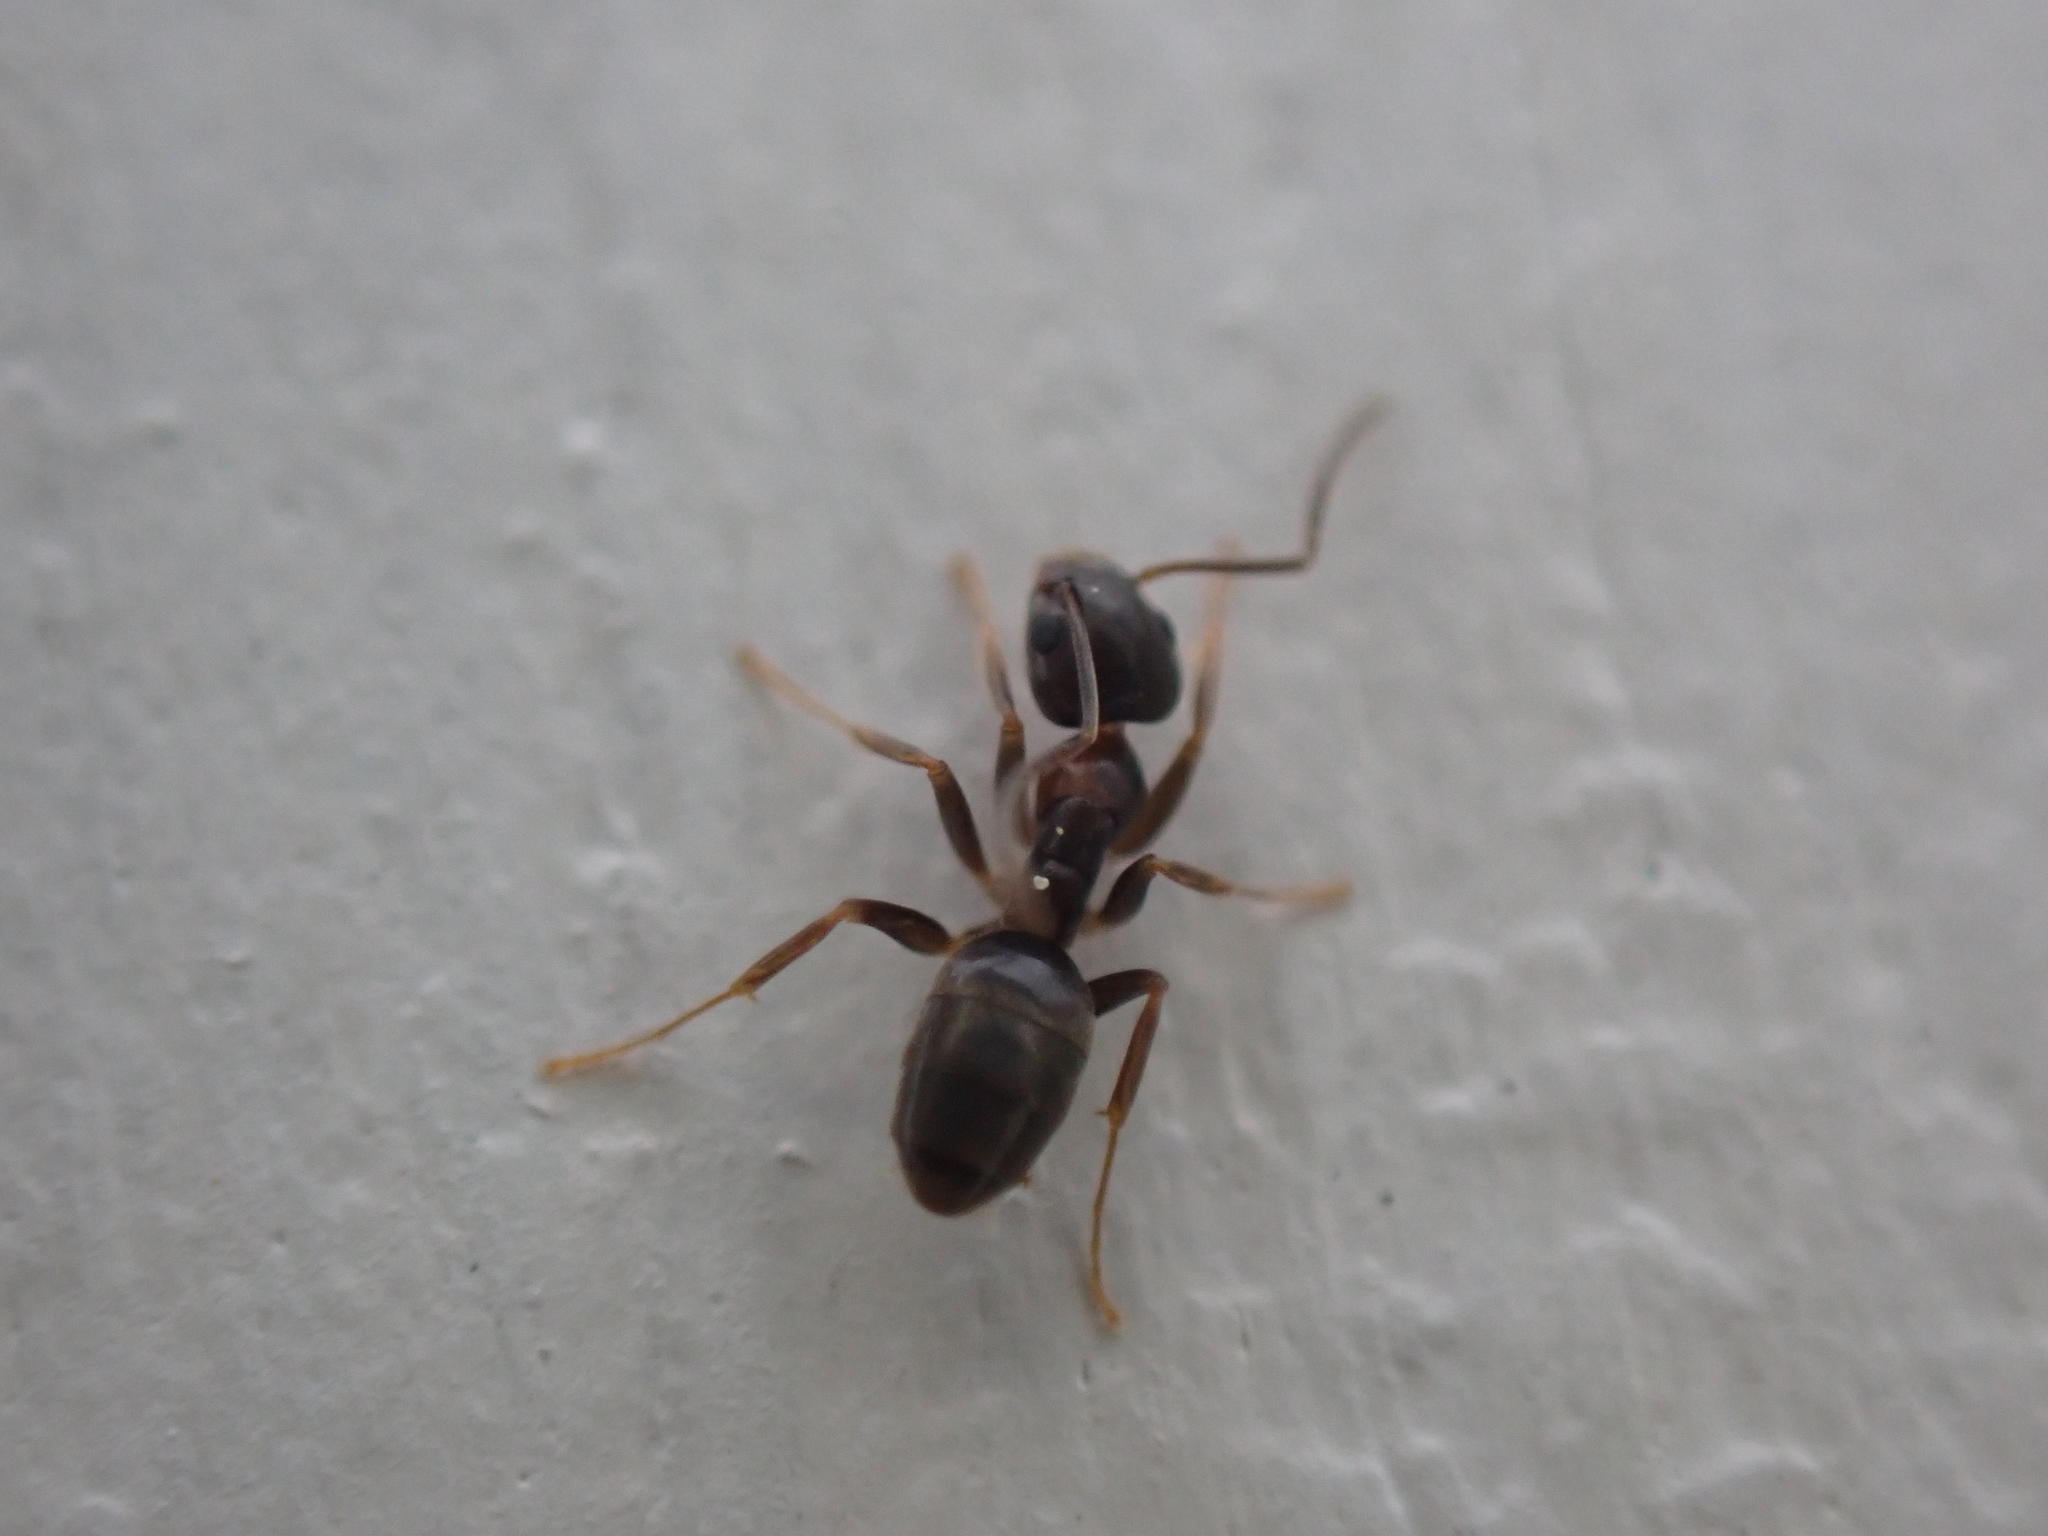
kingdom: Animalia
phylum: Arthropoda
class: Insecta
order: Hymenoptera
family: Formicidae
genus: Tapinoma
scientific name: Tapinoma sessile
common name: Odorous house ant
